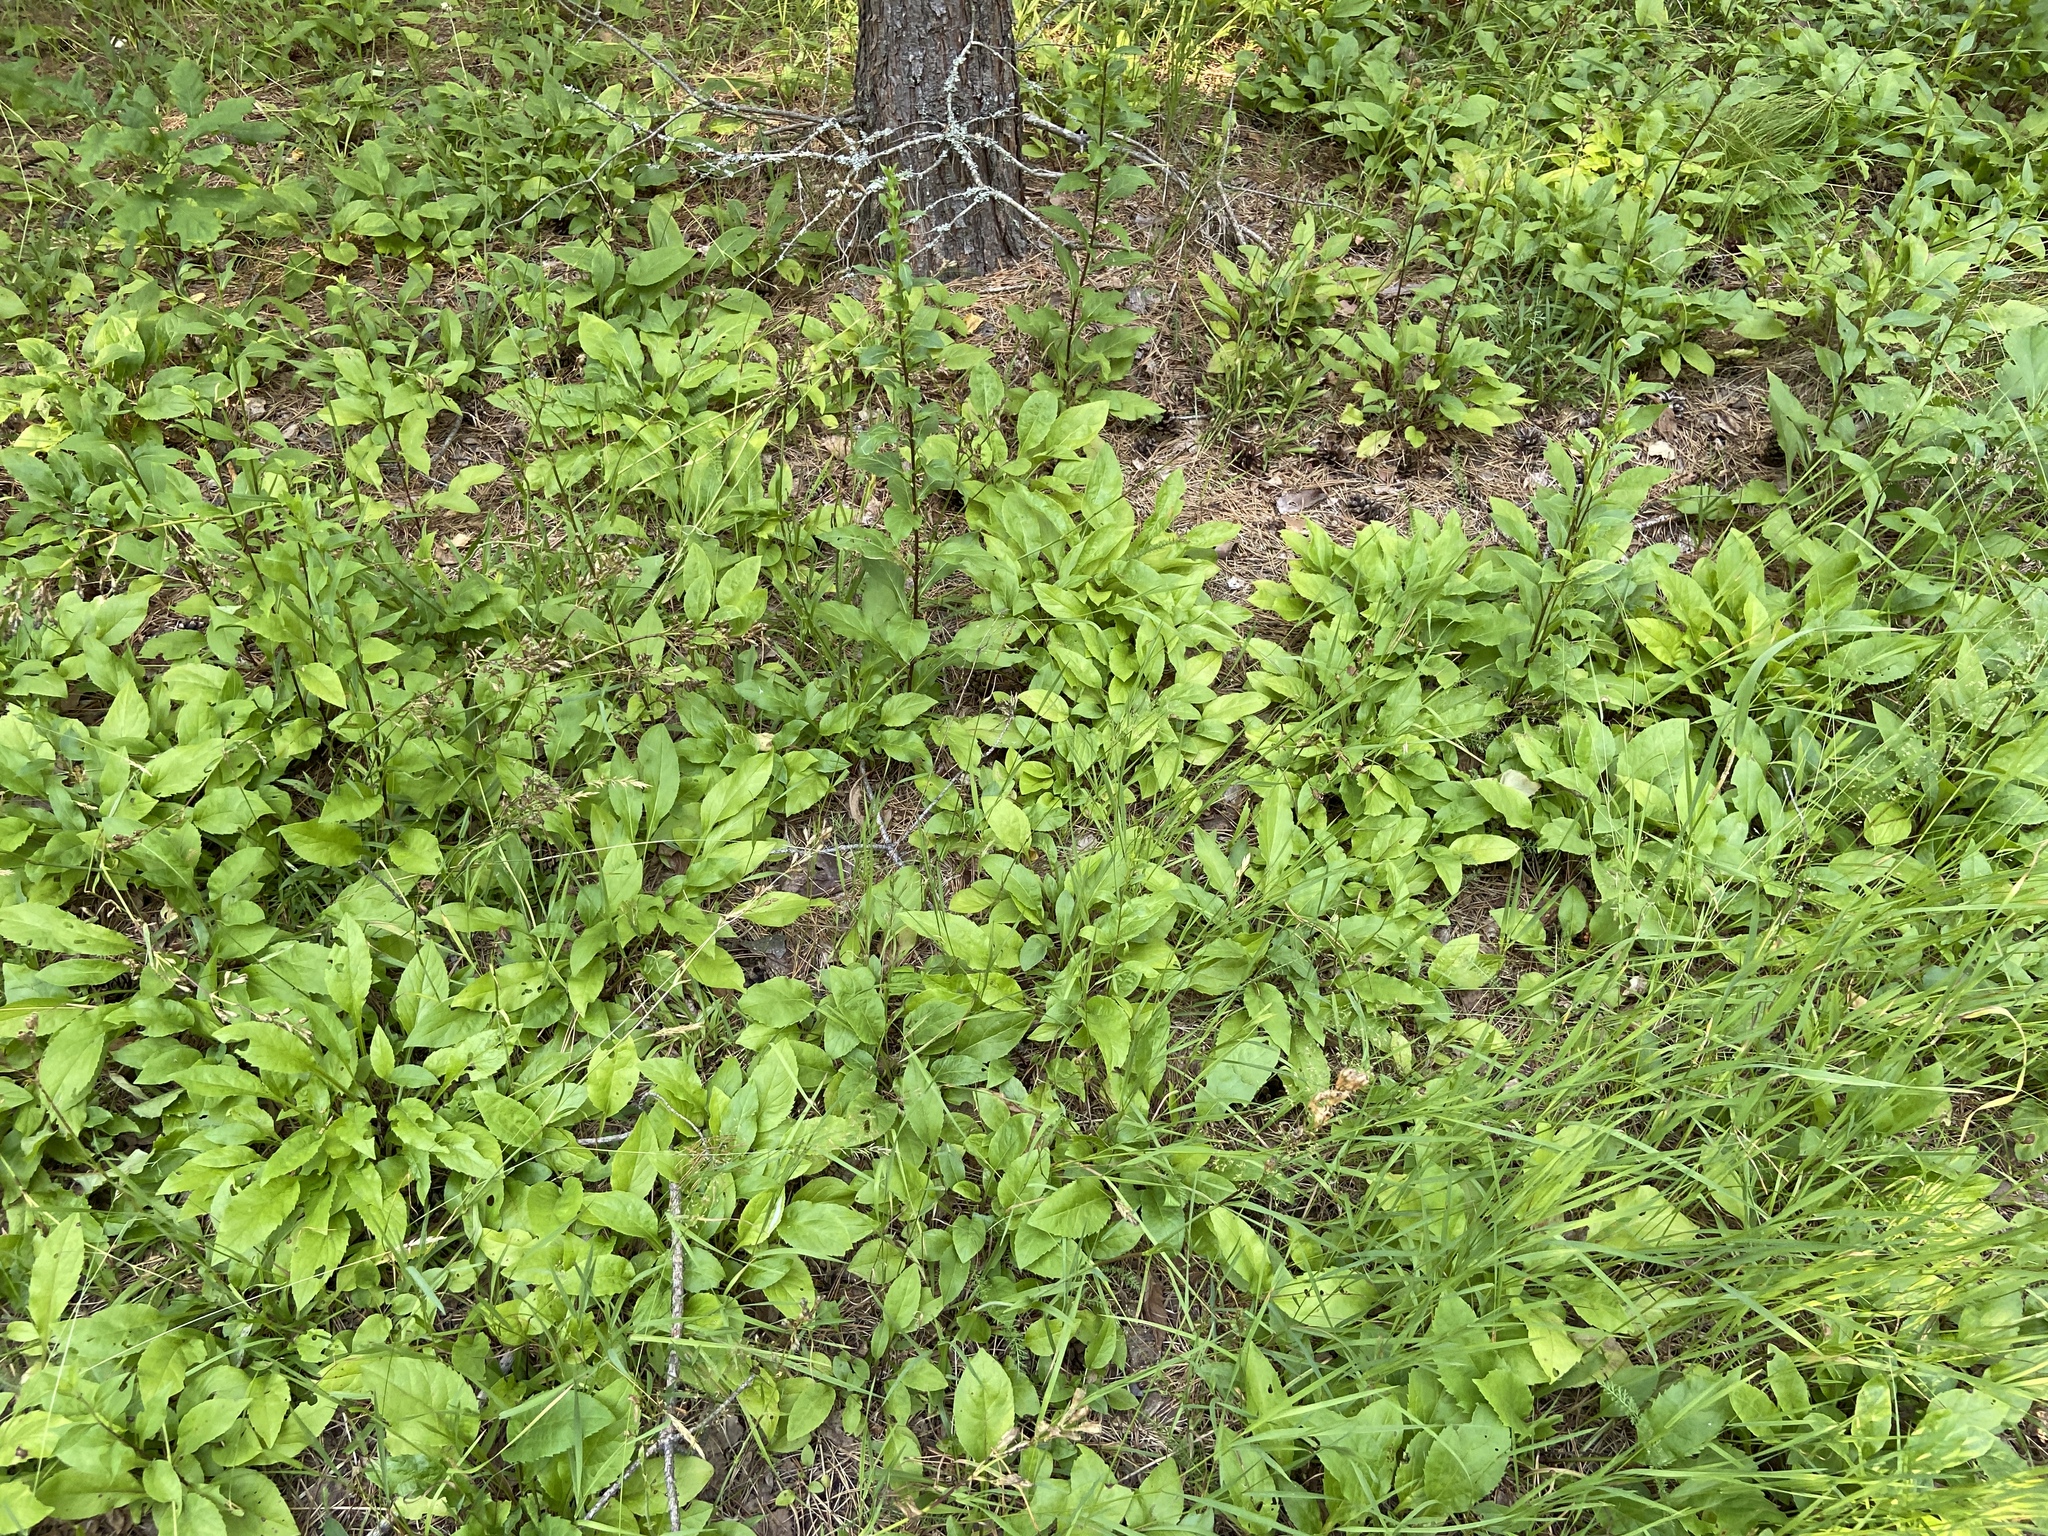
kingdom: Plantae
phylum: Tracheophyta
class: Magnoliopsida
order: Asterales
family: Asteraceae
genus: Solidago
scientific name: Solidago virgaurea
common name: Goldenrod
